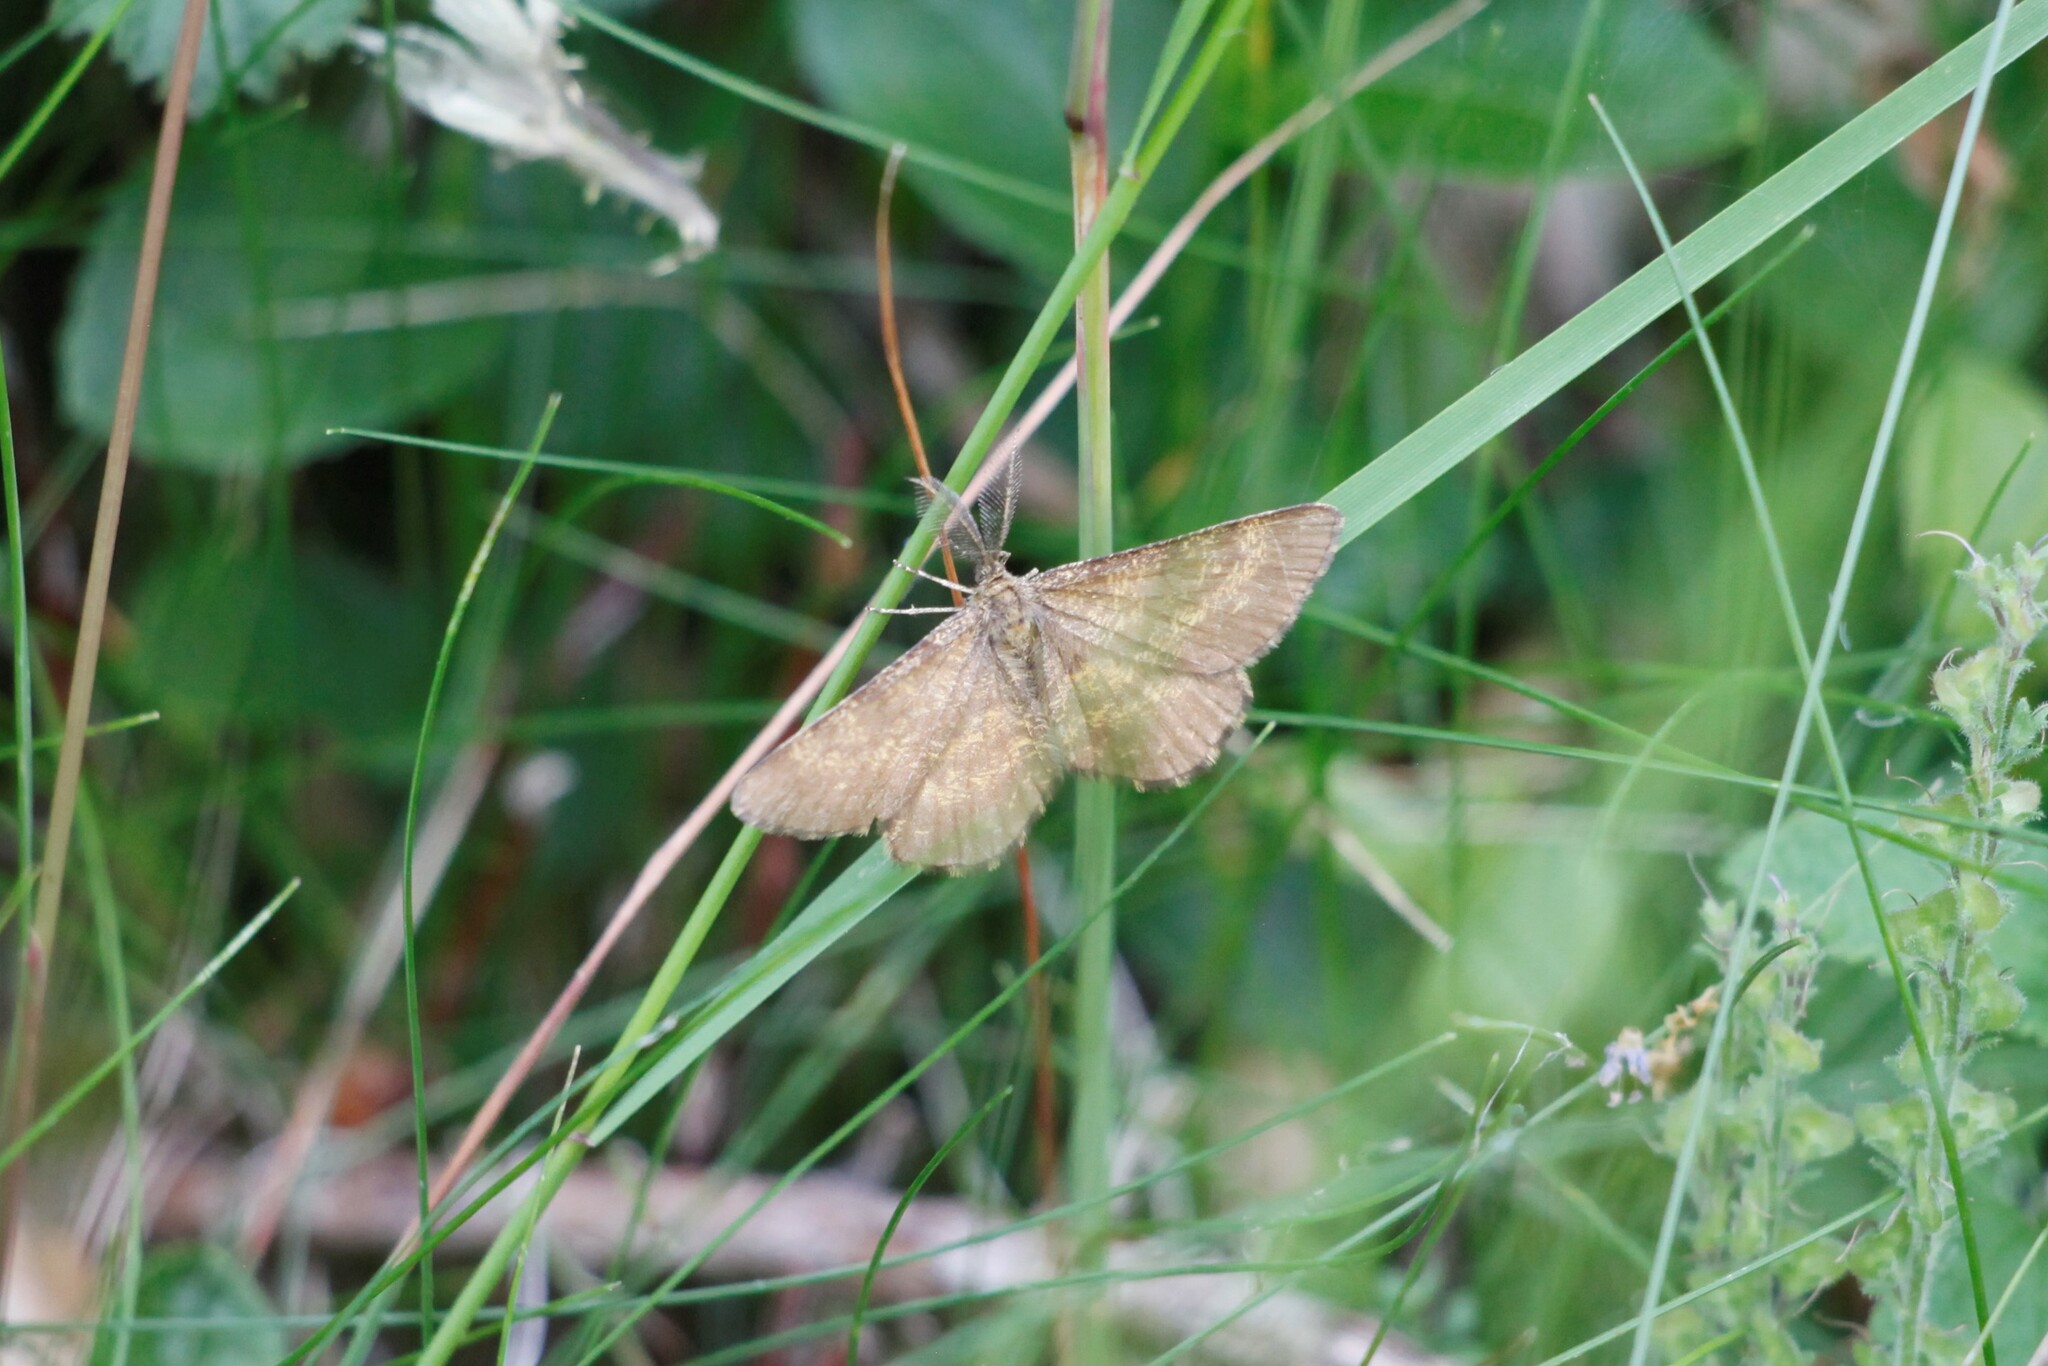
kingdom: Animalia
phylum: Arthropoda
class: Insecta
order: Lepidoptera
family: Geometridae
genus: Ematurga
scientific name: Ematurga atomaria
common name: Common heath
